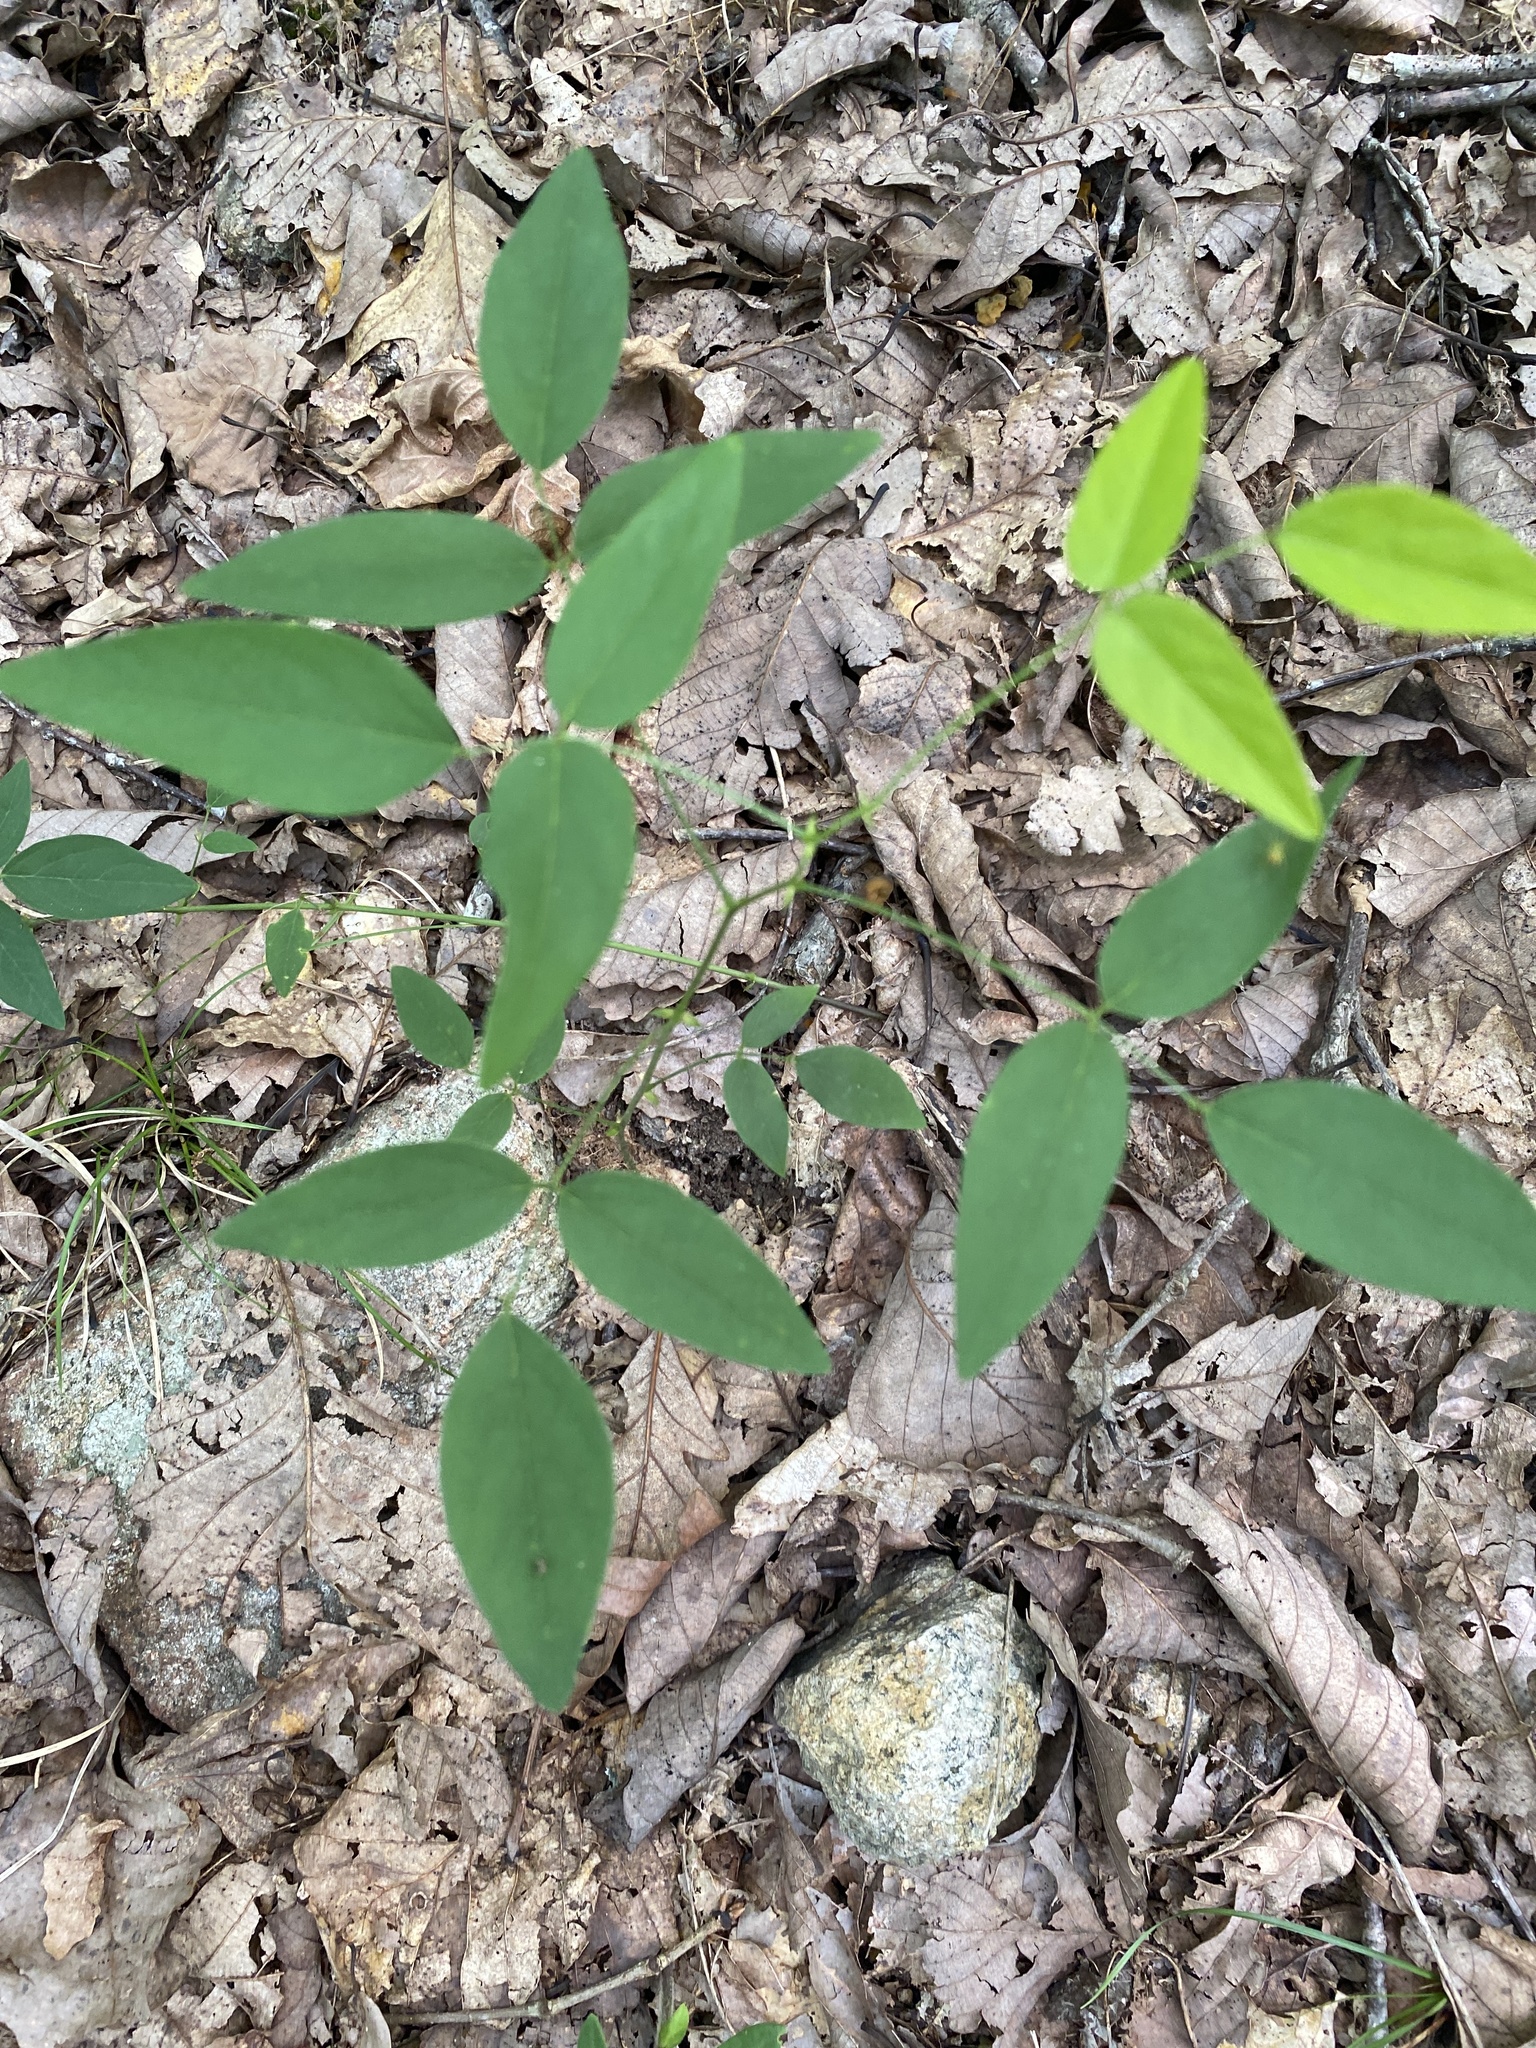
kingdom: Plantae
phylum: Tracheophyta
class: Magnoliopsida
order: Fabales
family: Fabaceae
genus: Clitoria
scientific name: Clitoria mariana
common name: Butterfly-pea
